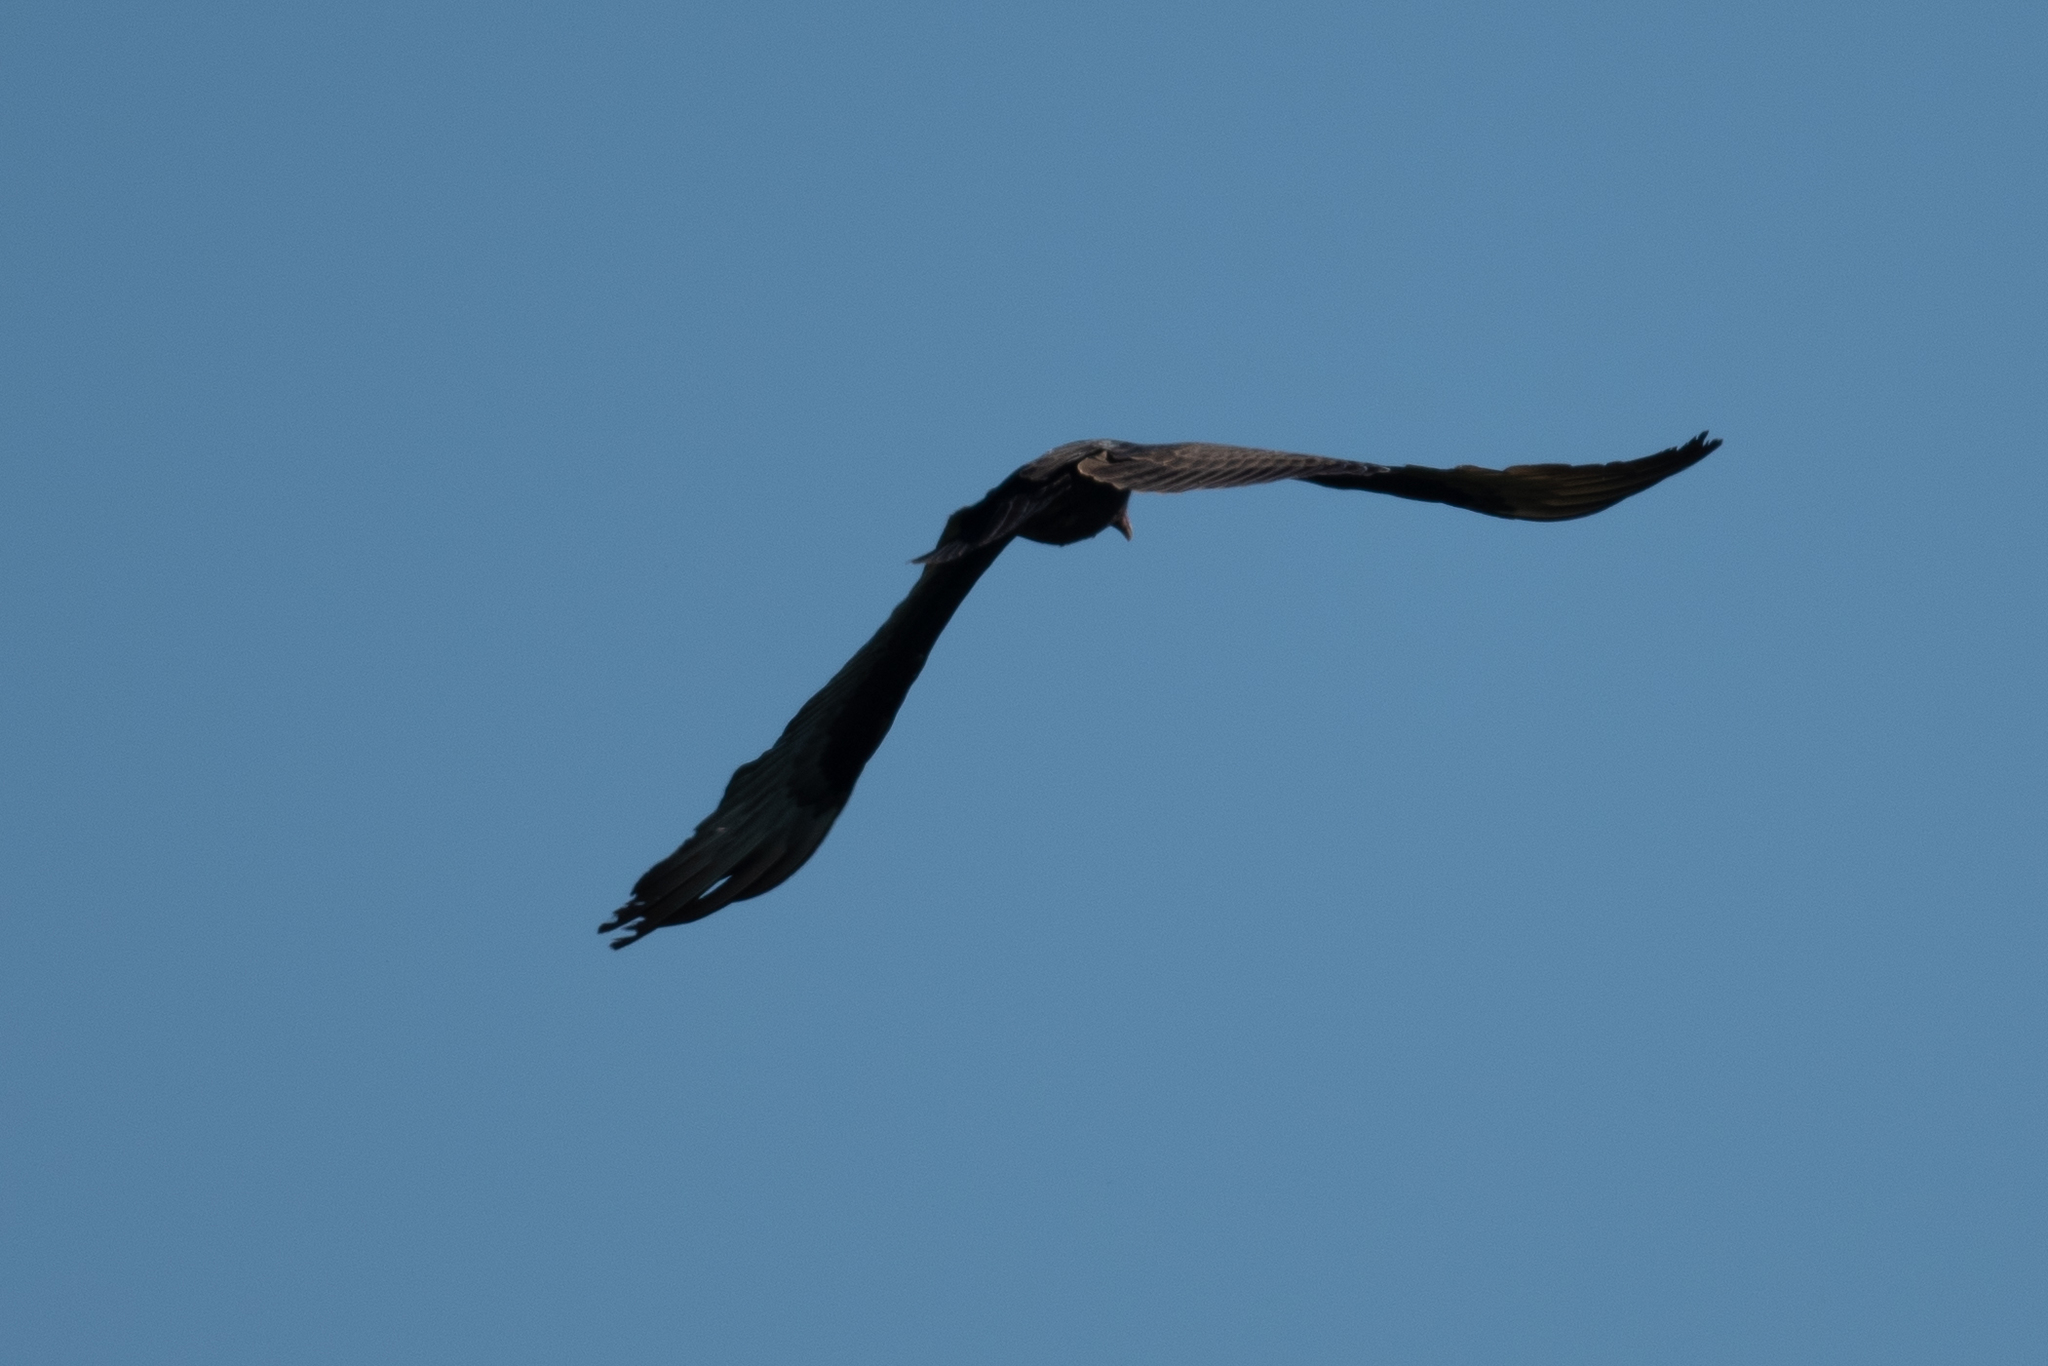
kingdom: Animalia
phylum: Chordata
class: Aves
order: Accipitriformes
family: Cathartidae
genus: Cathartes
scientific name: Cathartes aura
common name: Turkey vulture
